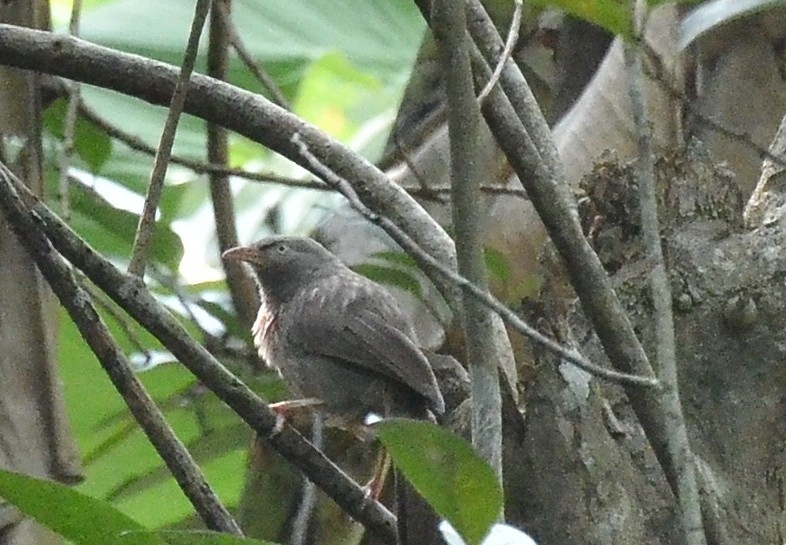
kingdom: Animalia
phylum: Chordata
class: Aves
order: Passeriformes
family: Leiothrichidae
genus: Turdoides
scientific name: Turdoides striata
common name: Jungle babbler
